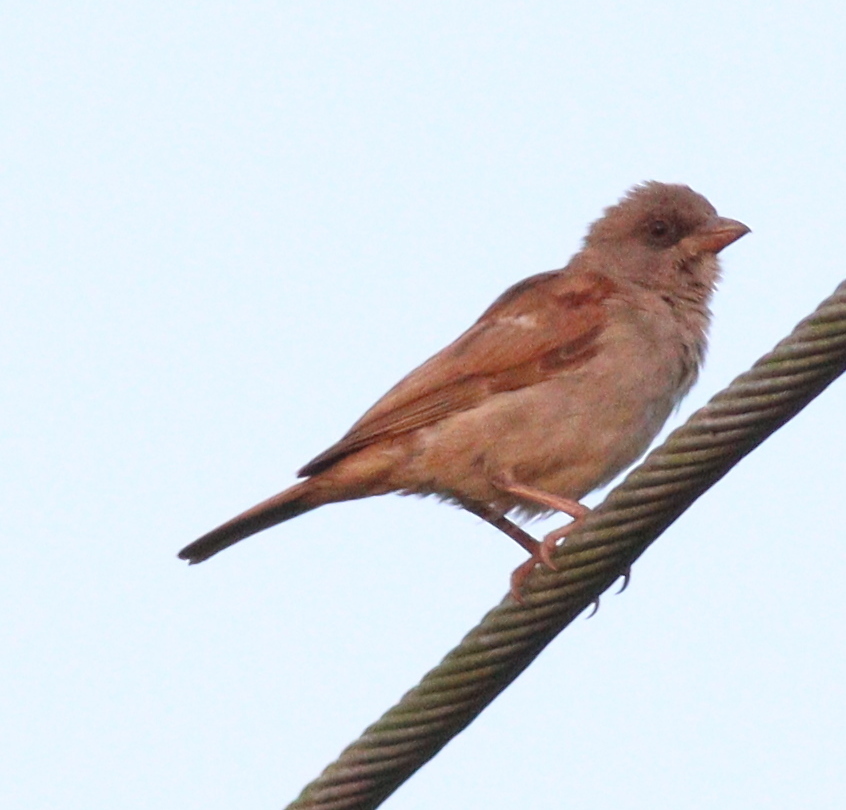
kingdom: Animalia
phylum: Chordata
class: Aves
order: Passeriformes
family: Passeridae
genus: Passer
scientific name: Passer griseus
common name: Northern grey-headed sparrow
